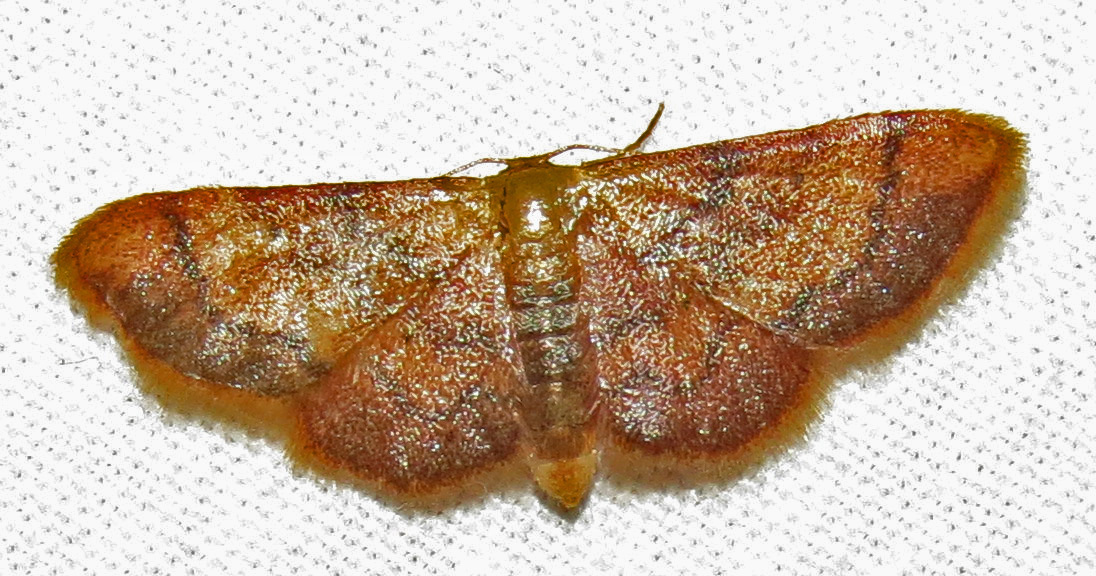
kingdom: Animalia
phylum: Arthropoda
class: Insecta
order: Lepidoptera
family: Geometridae
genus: Idaea
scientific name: Idaea demissaria
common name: Red-bordered wave
